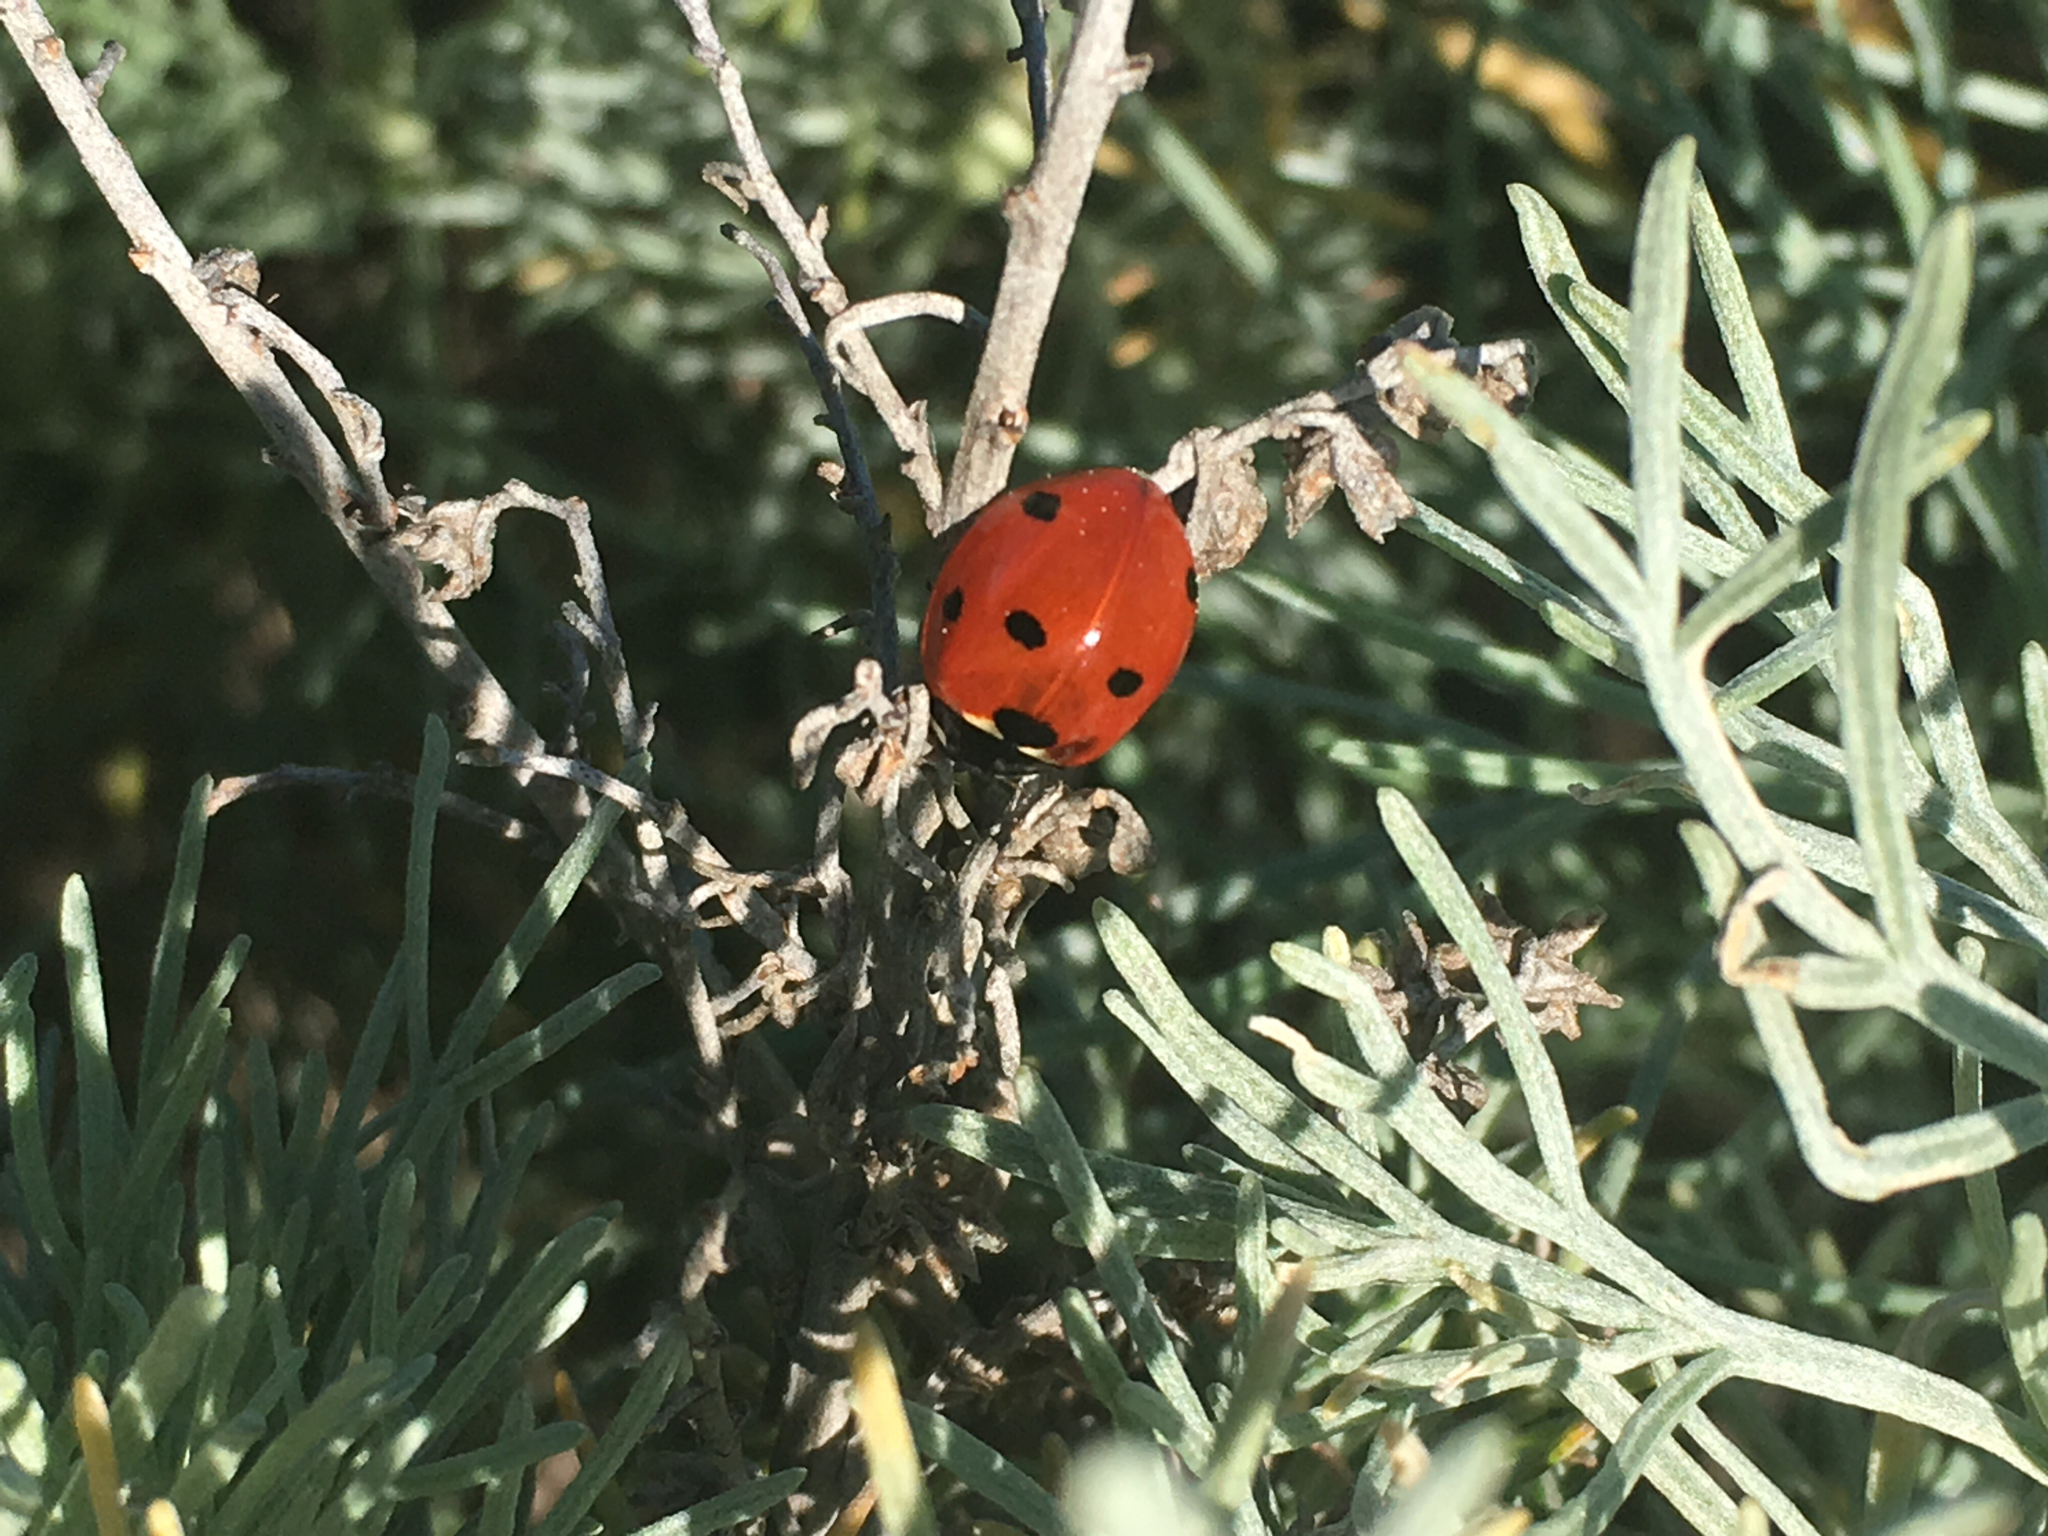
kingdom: Animalia
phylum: Arthropoda
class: Insecta
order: Coleoptera
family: Coccinellidae
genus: Coccinella
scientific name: Coccinella septempunctata
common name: Sevenspotted lady beetle
